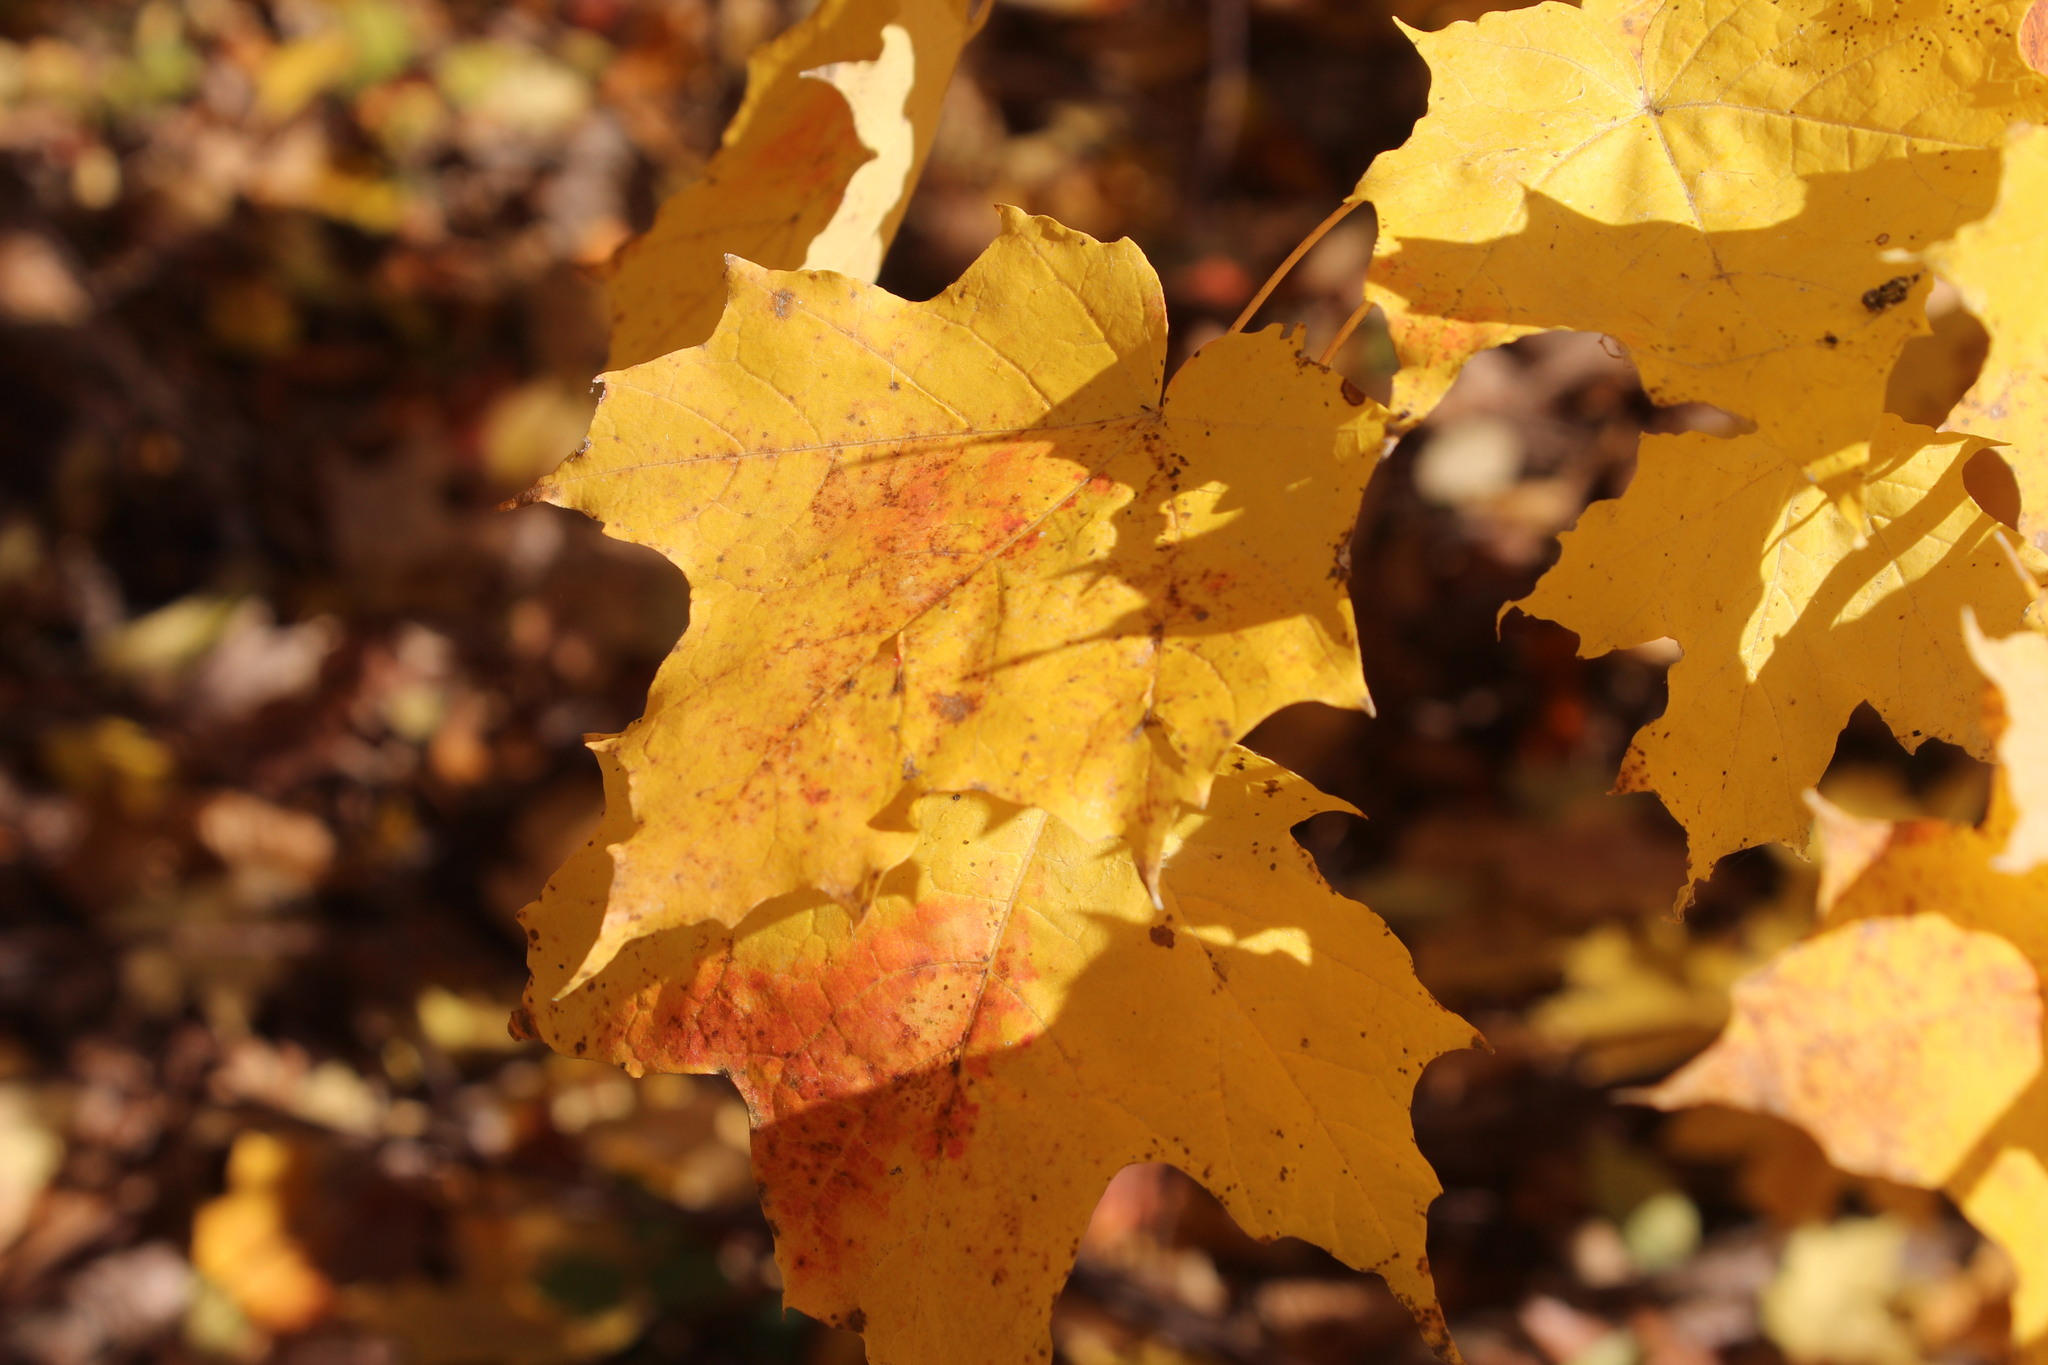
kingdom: Plantae
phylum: Tracheophyta
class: Magnoliopsida
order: Sapindales
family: Sapindaceae
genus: Acer
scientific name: Acer saccharum
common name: Sugar maple
